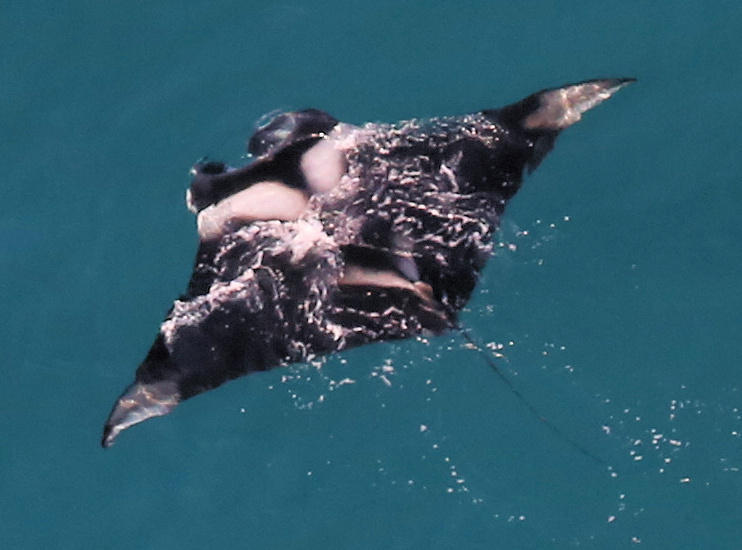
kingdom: Animalia
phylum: Chordata
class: Elasmobranchii
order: Myliobatiformes
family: Myliobatidae
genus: Mobula
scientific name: Mobula birostris
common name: Manta ray
